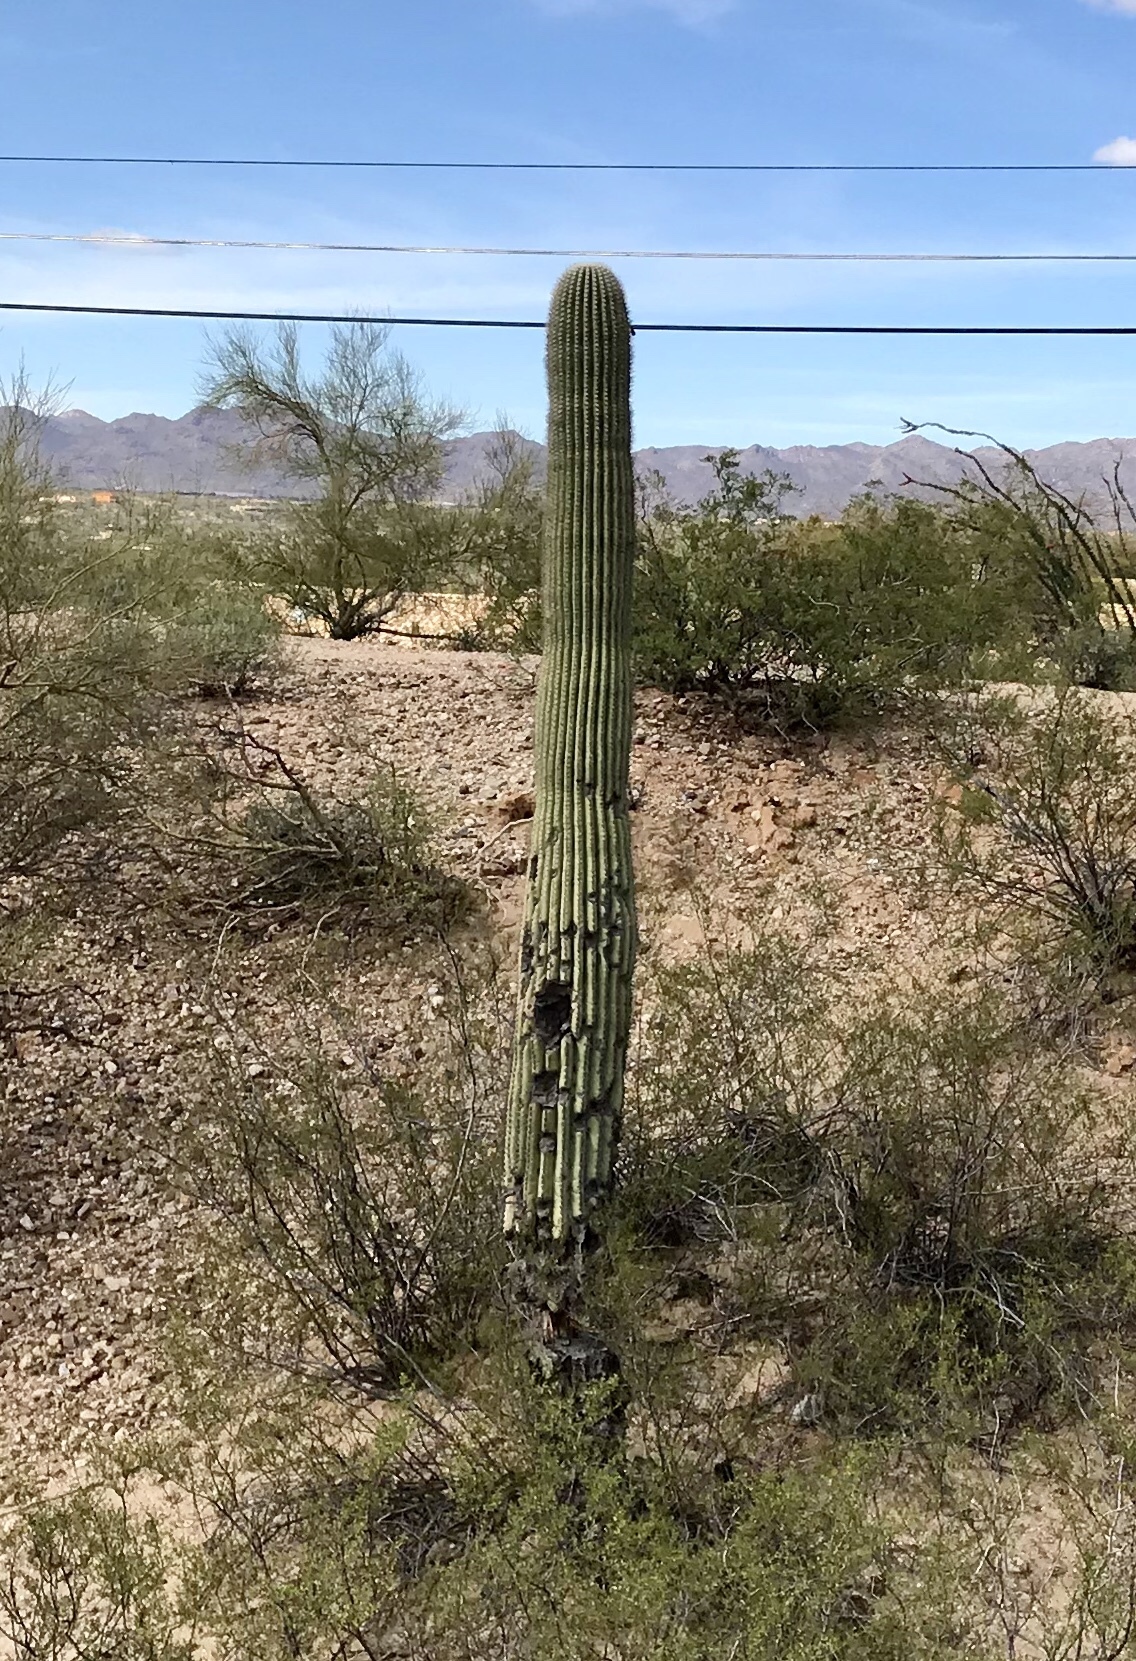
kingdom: Plantae
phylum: Tracheophyta
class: Magnoliopsida
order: Caryophyllales
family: Cactaceae
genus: Carnegiea
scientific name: Carnegiea gigantea
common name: Saguaro
